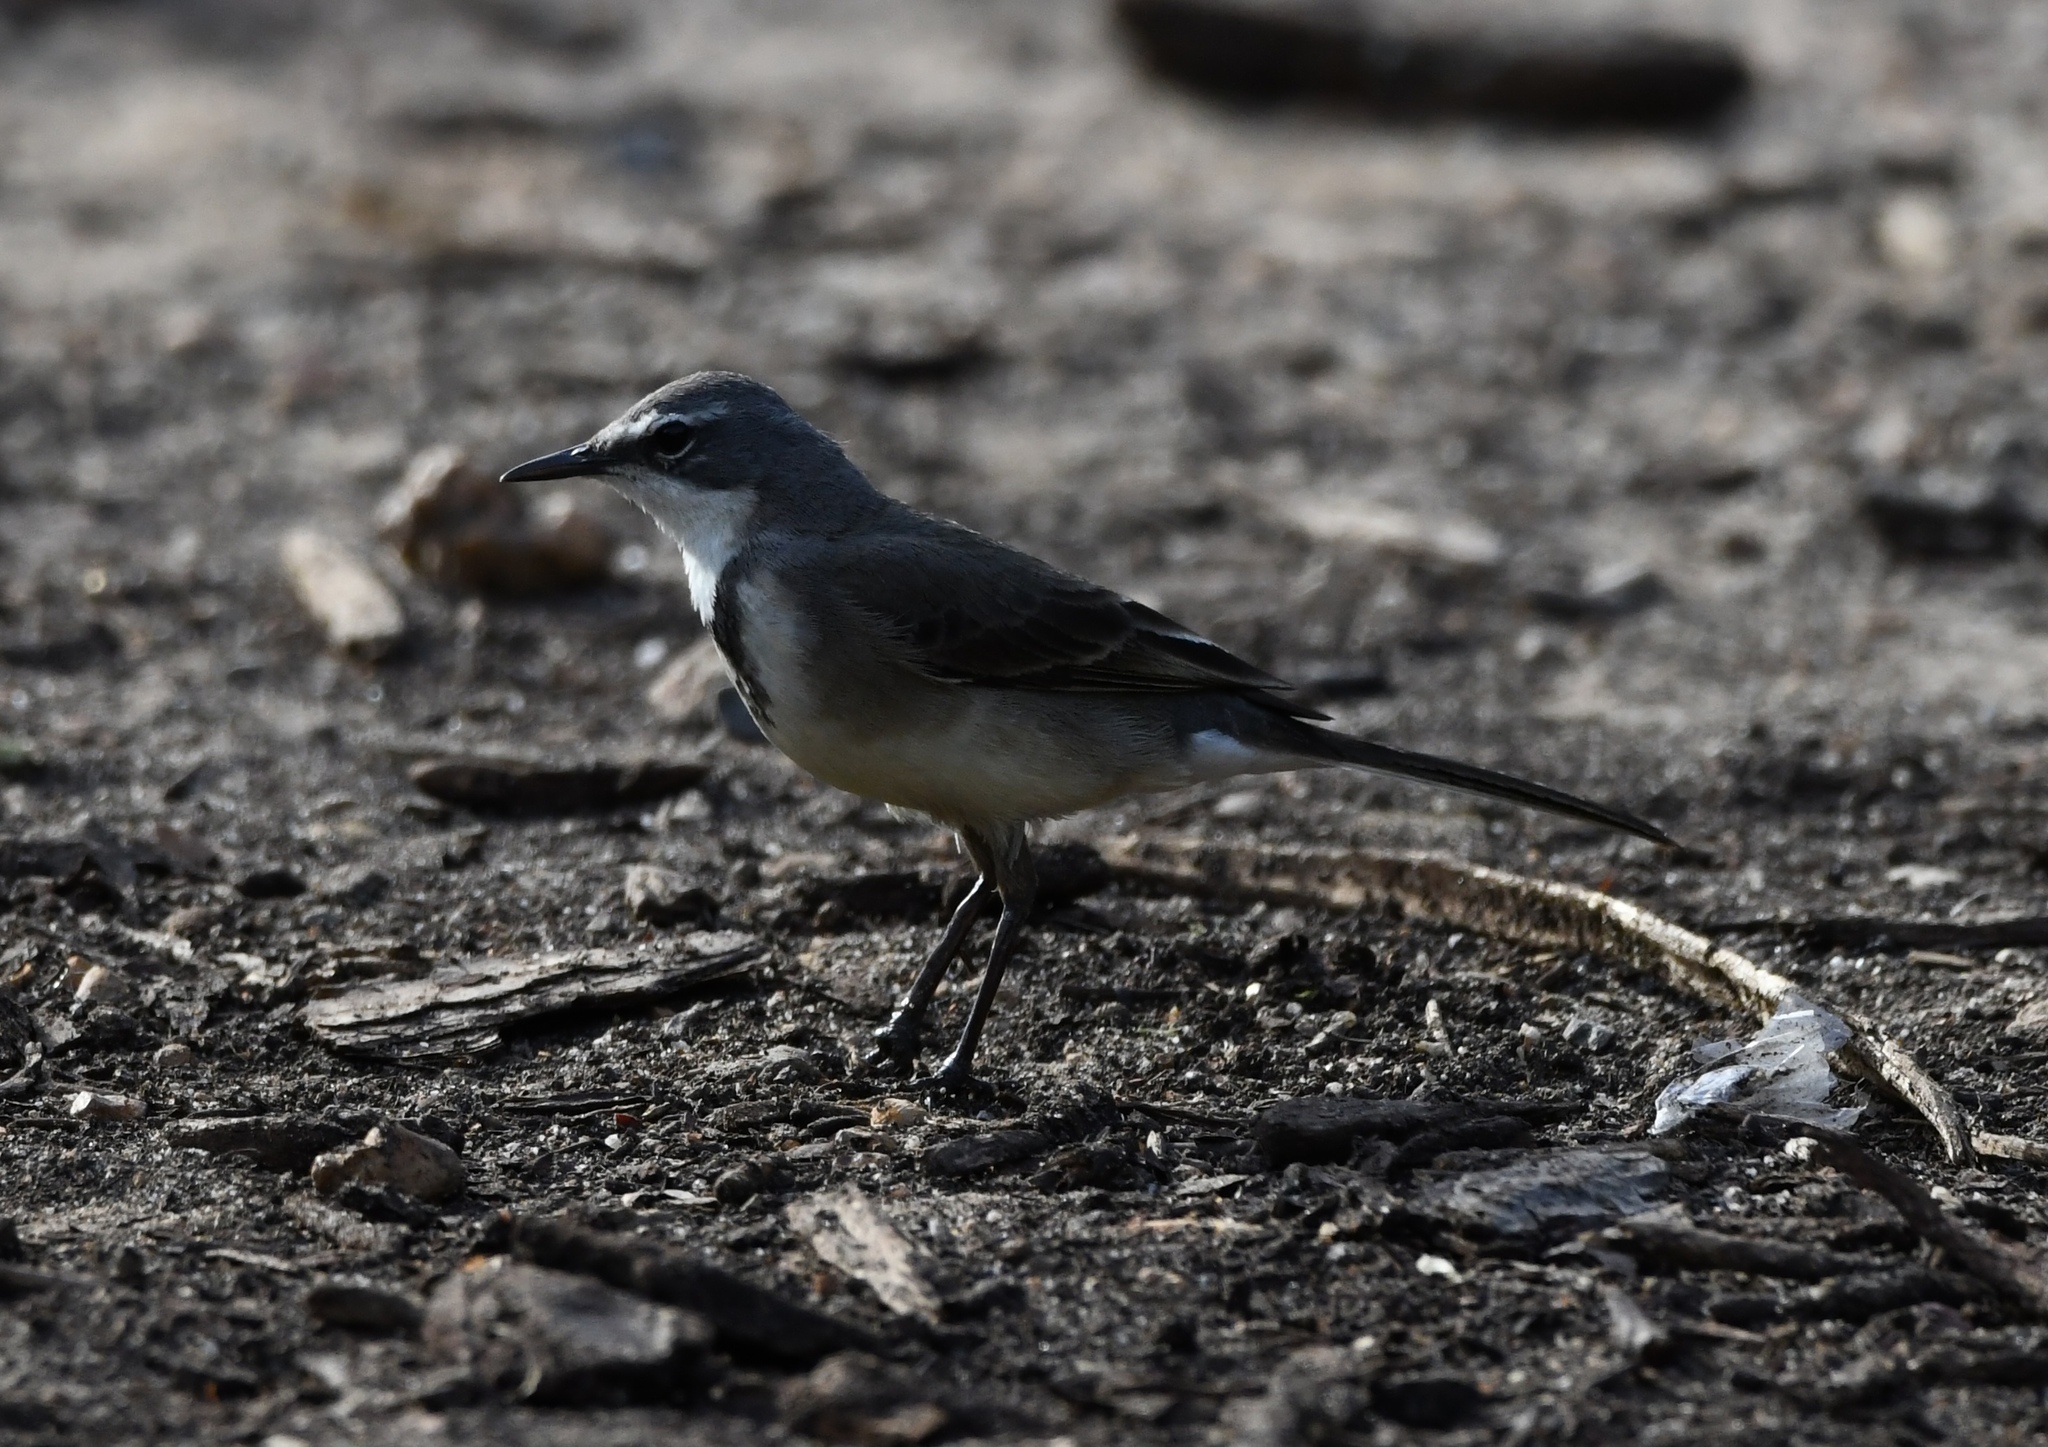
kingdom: Animalia
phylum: Chordata
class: Aves
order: Passeriformes
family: Motacillidae
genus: Motacilla
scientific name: Motacilla capensis
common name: Cape wagtail
